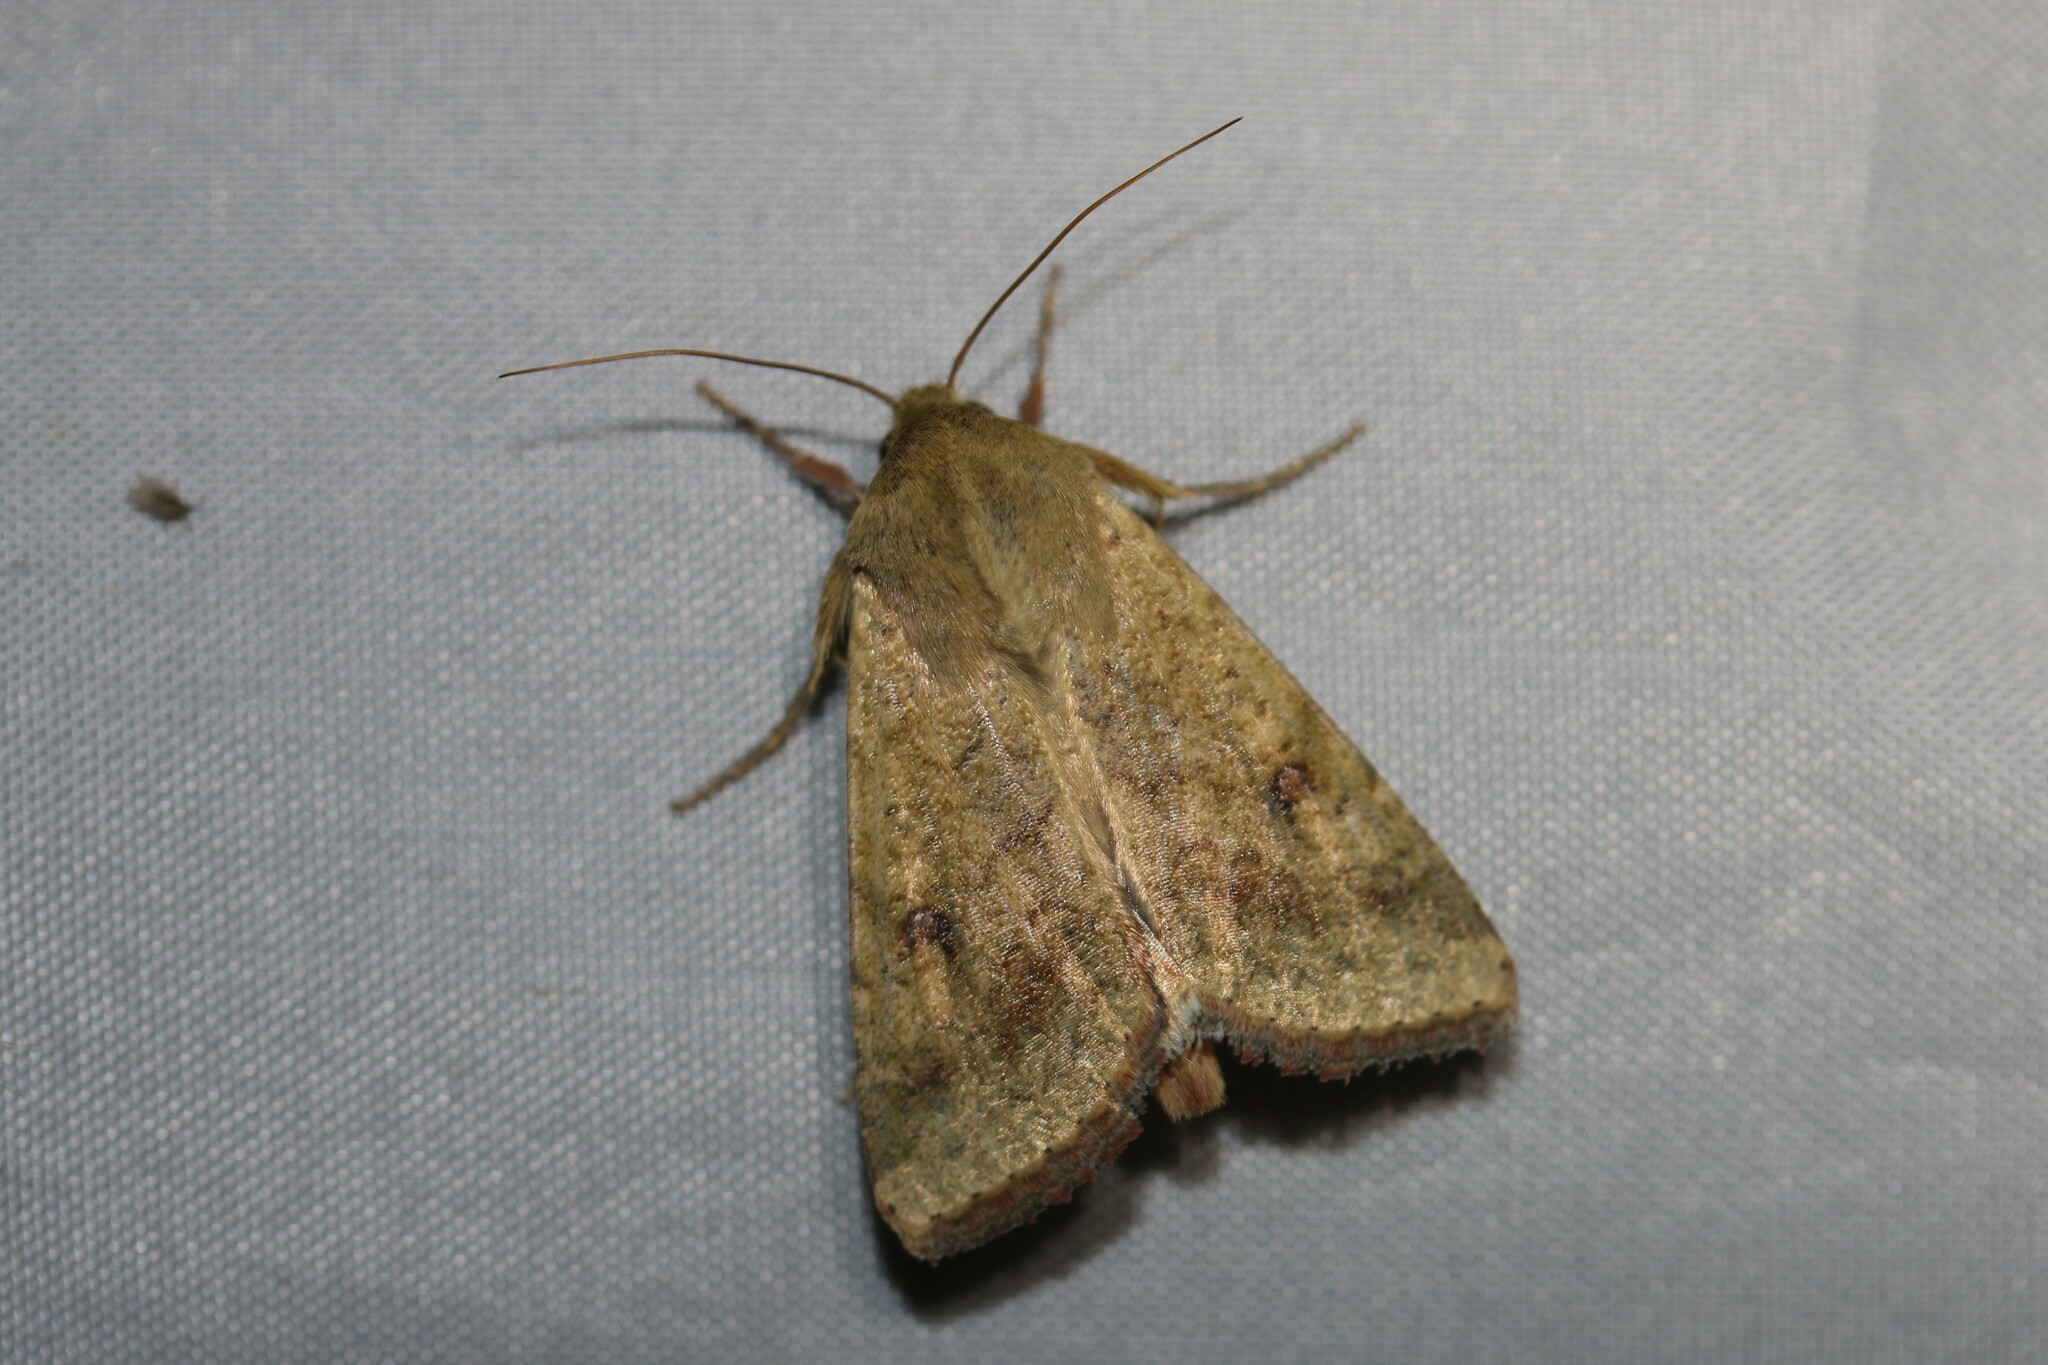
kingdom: Animalia
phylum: Arthropoda
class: Insecta
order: Lepidoptera
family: Noctuidae
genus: Helicoverpa
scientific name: Helicoverpa armigera
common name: Cotton bollworm
